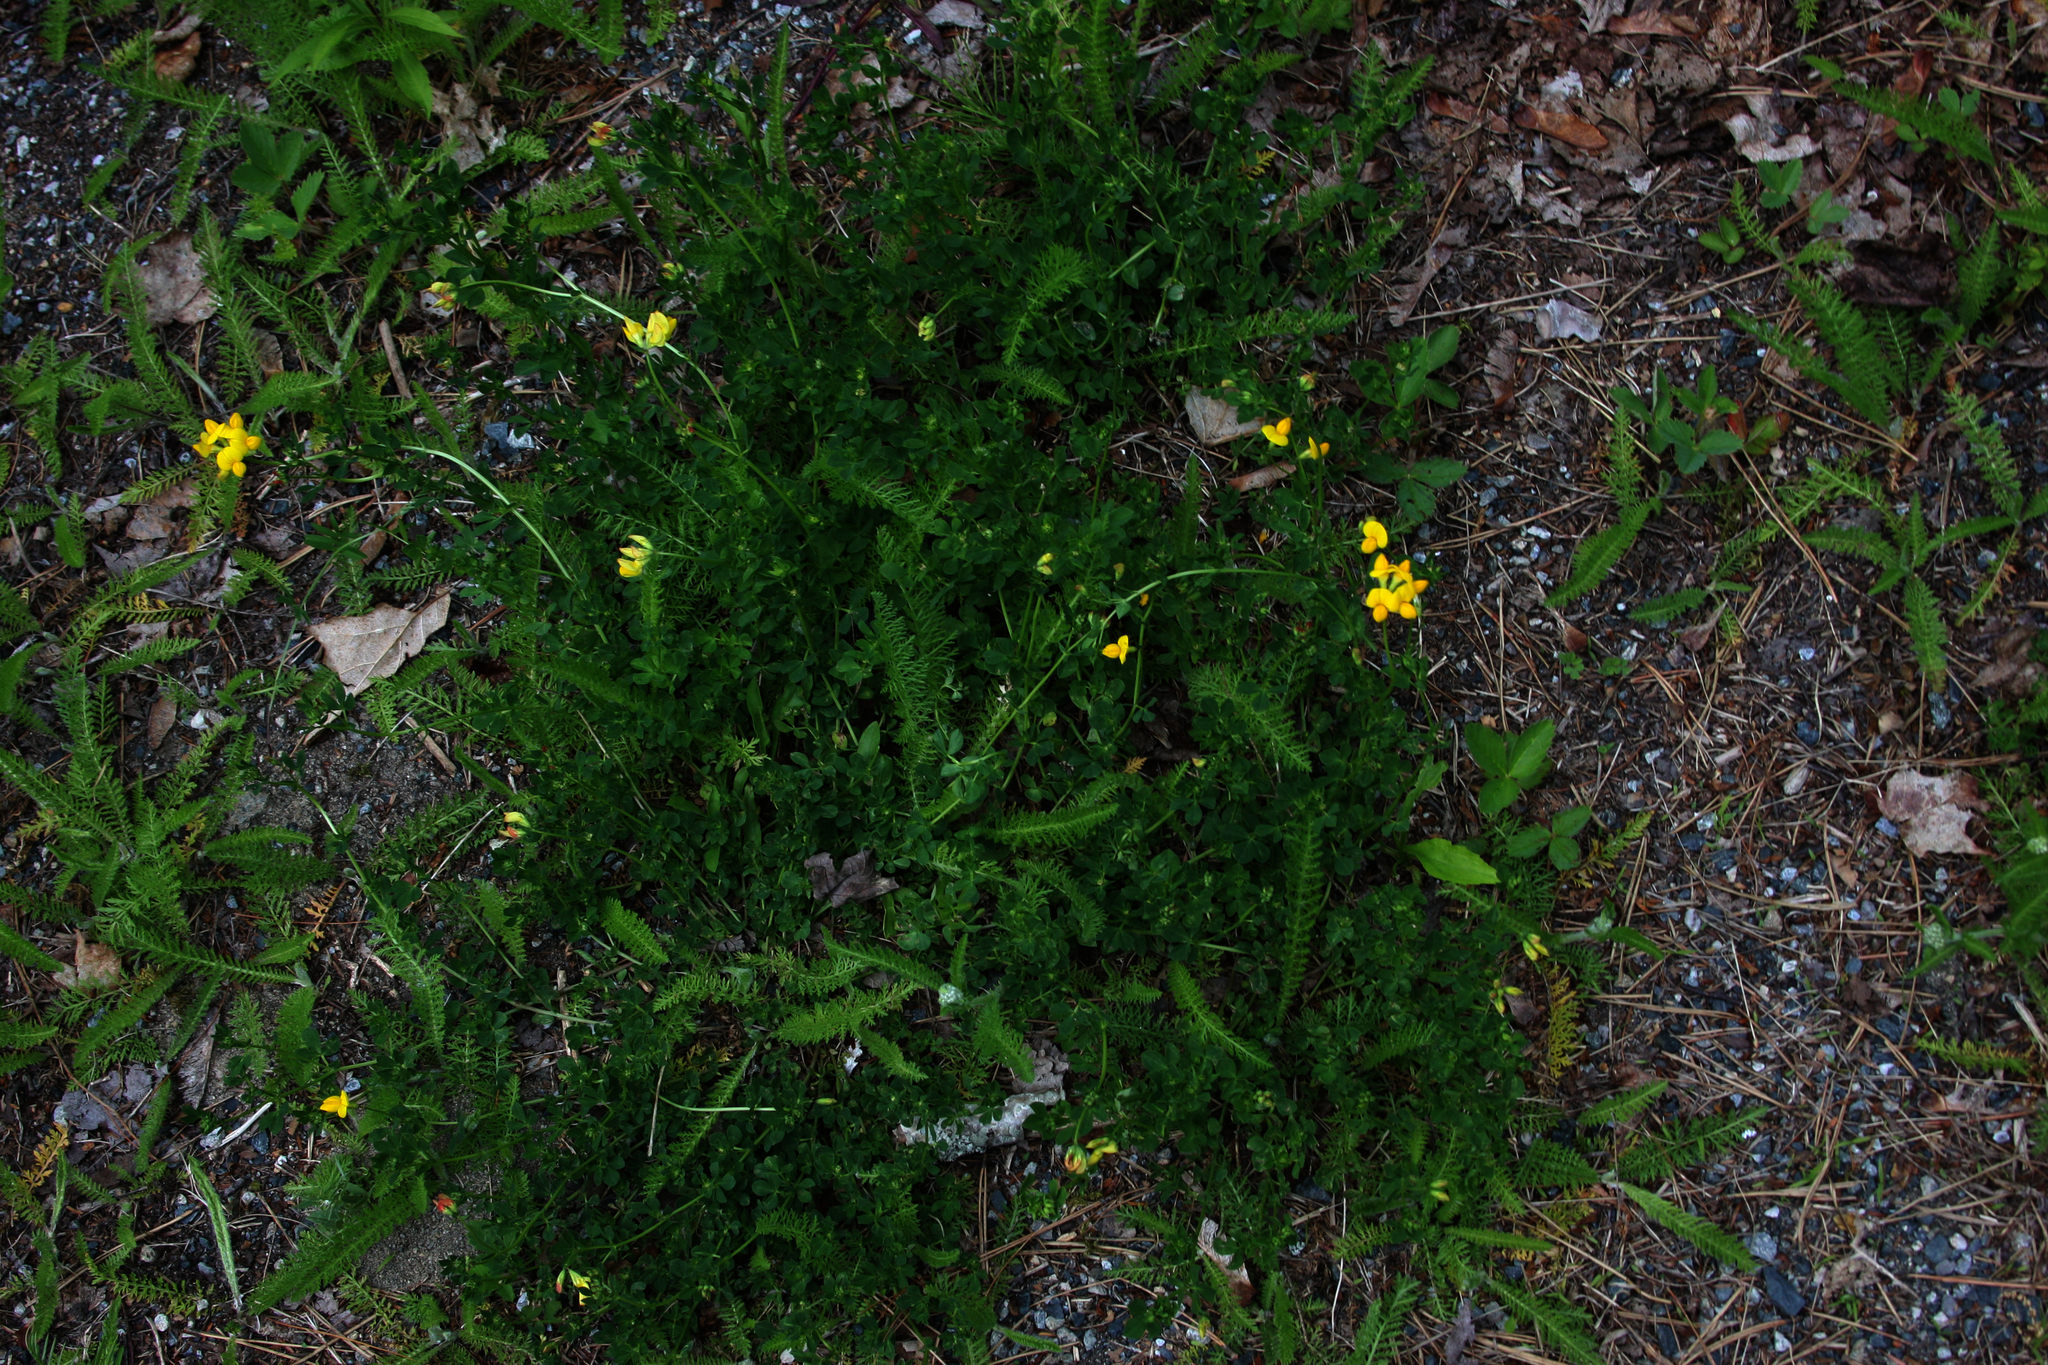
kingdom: Plantae
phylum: Tracheophyta
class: Magnoliopsida
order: Fabales
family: Fabaceae
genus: Lotus
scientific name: Lotus corniculatus
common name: Common bird's-foot-trefoil
